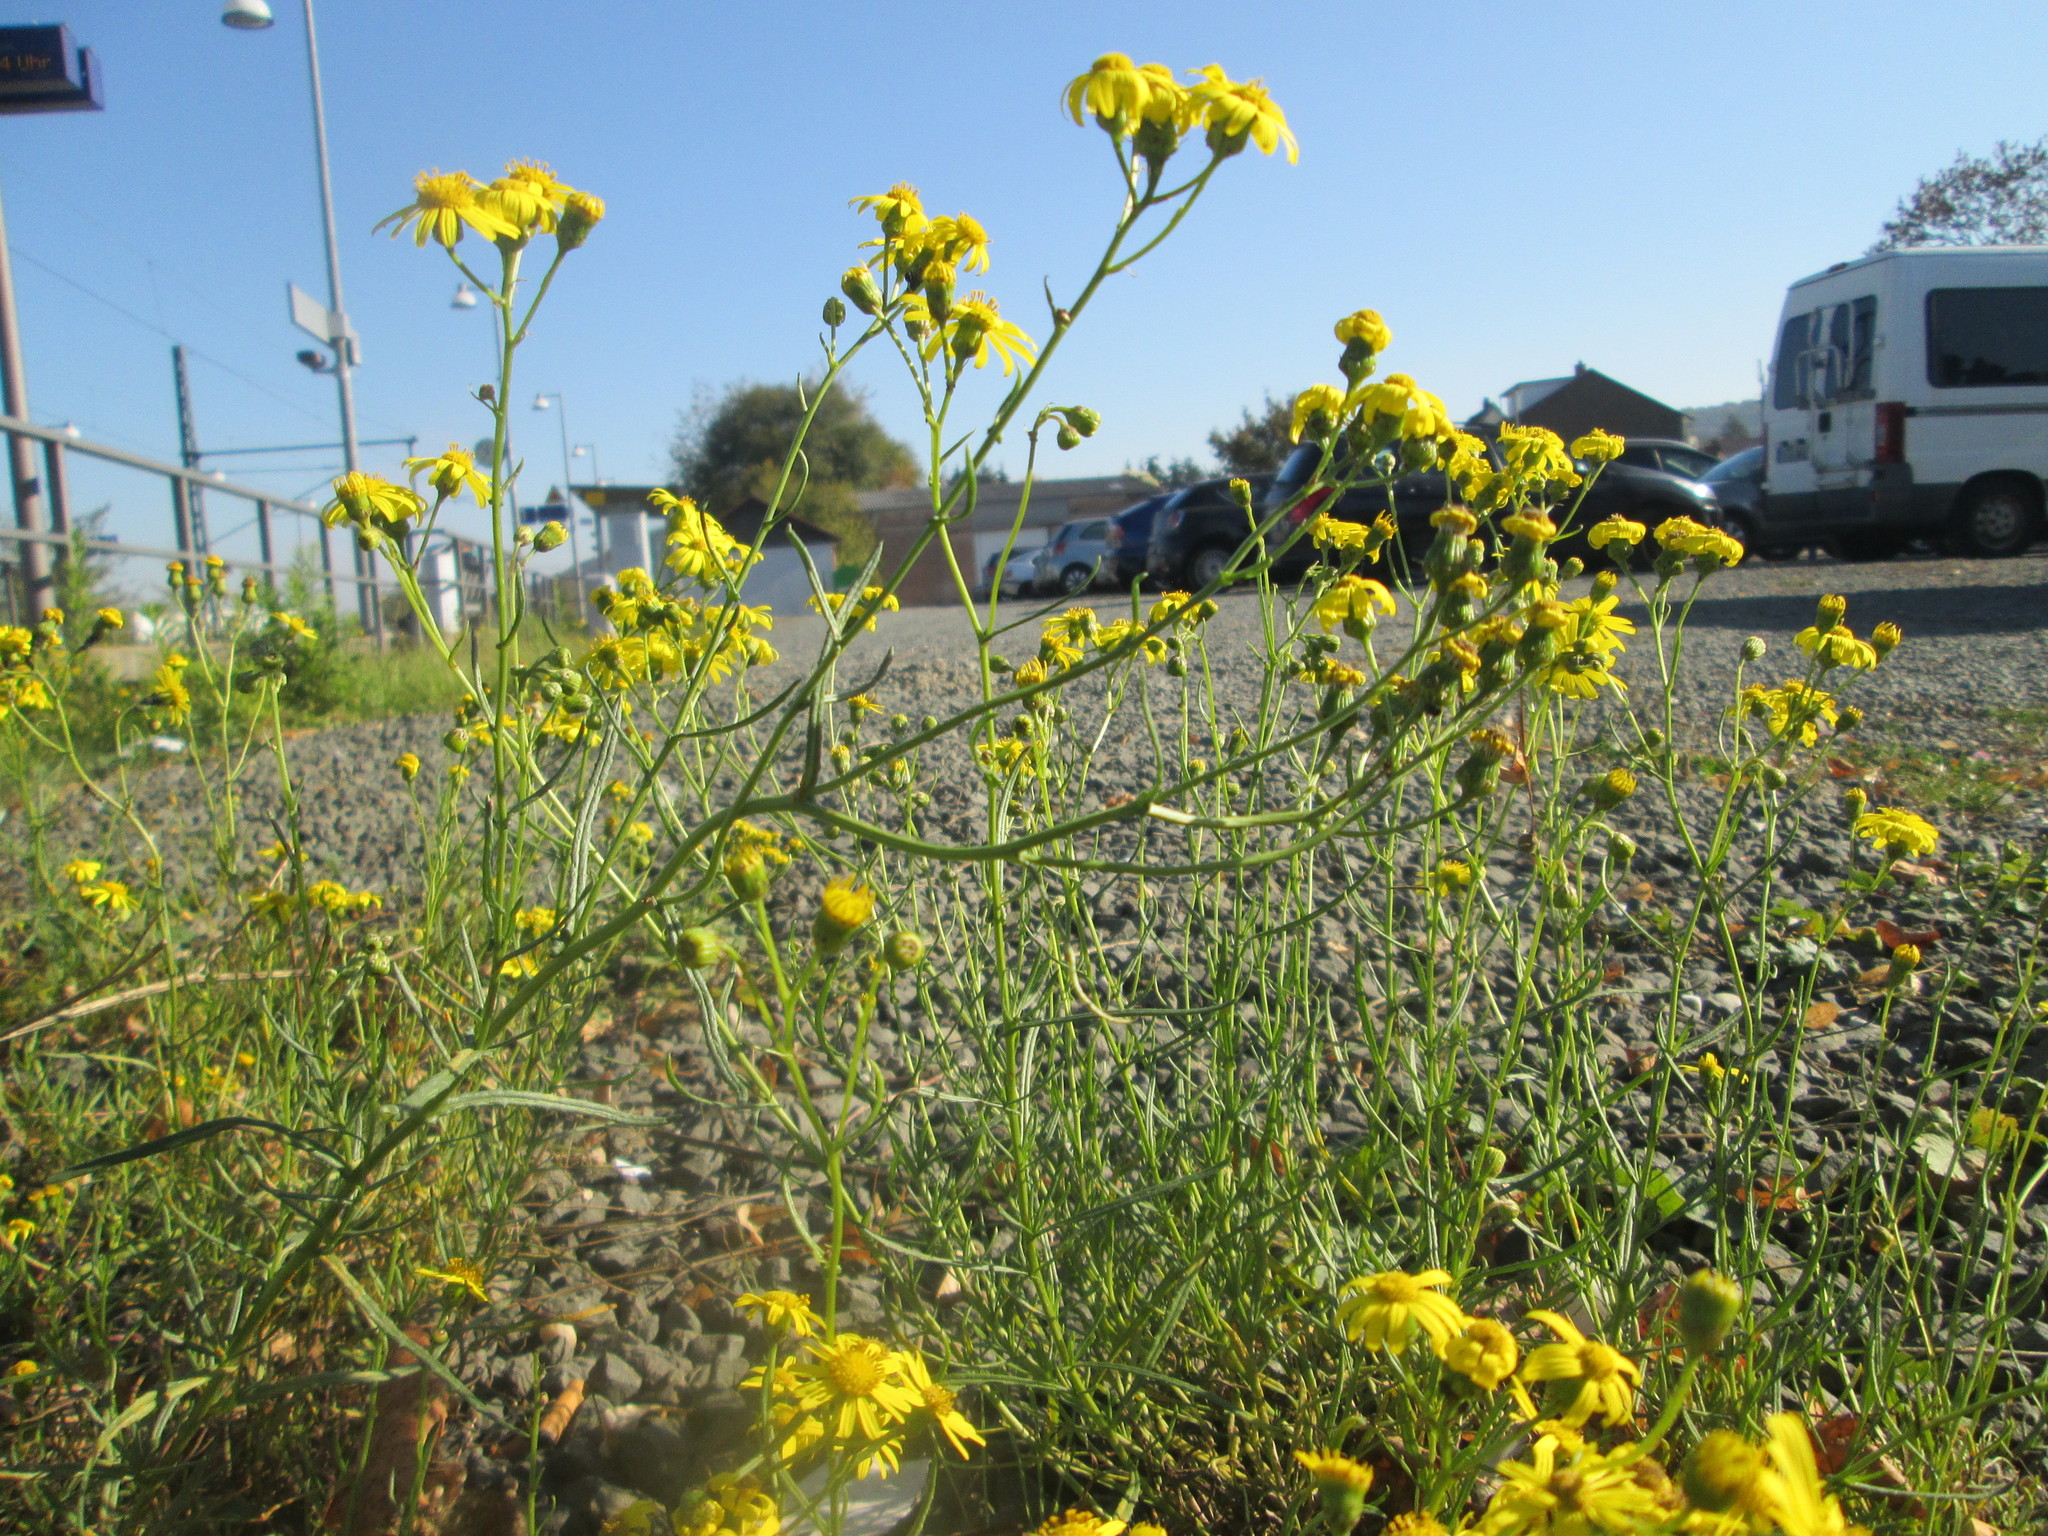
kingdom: Plantae
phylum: Tracheophyta
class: Magnoliopsida
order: Asterales
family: Asteraceae
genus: Senecio
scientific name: Senecio inaequidens
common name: Narrow-leaved ragwort
